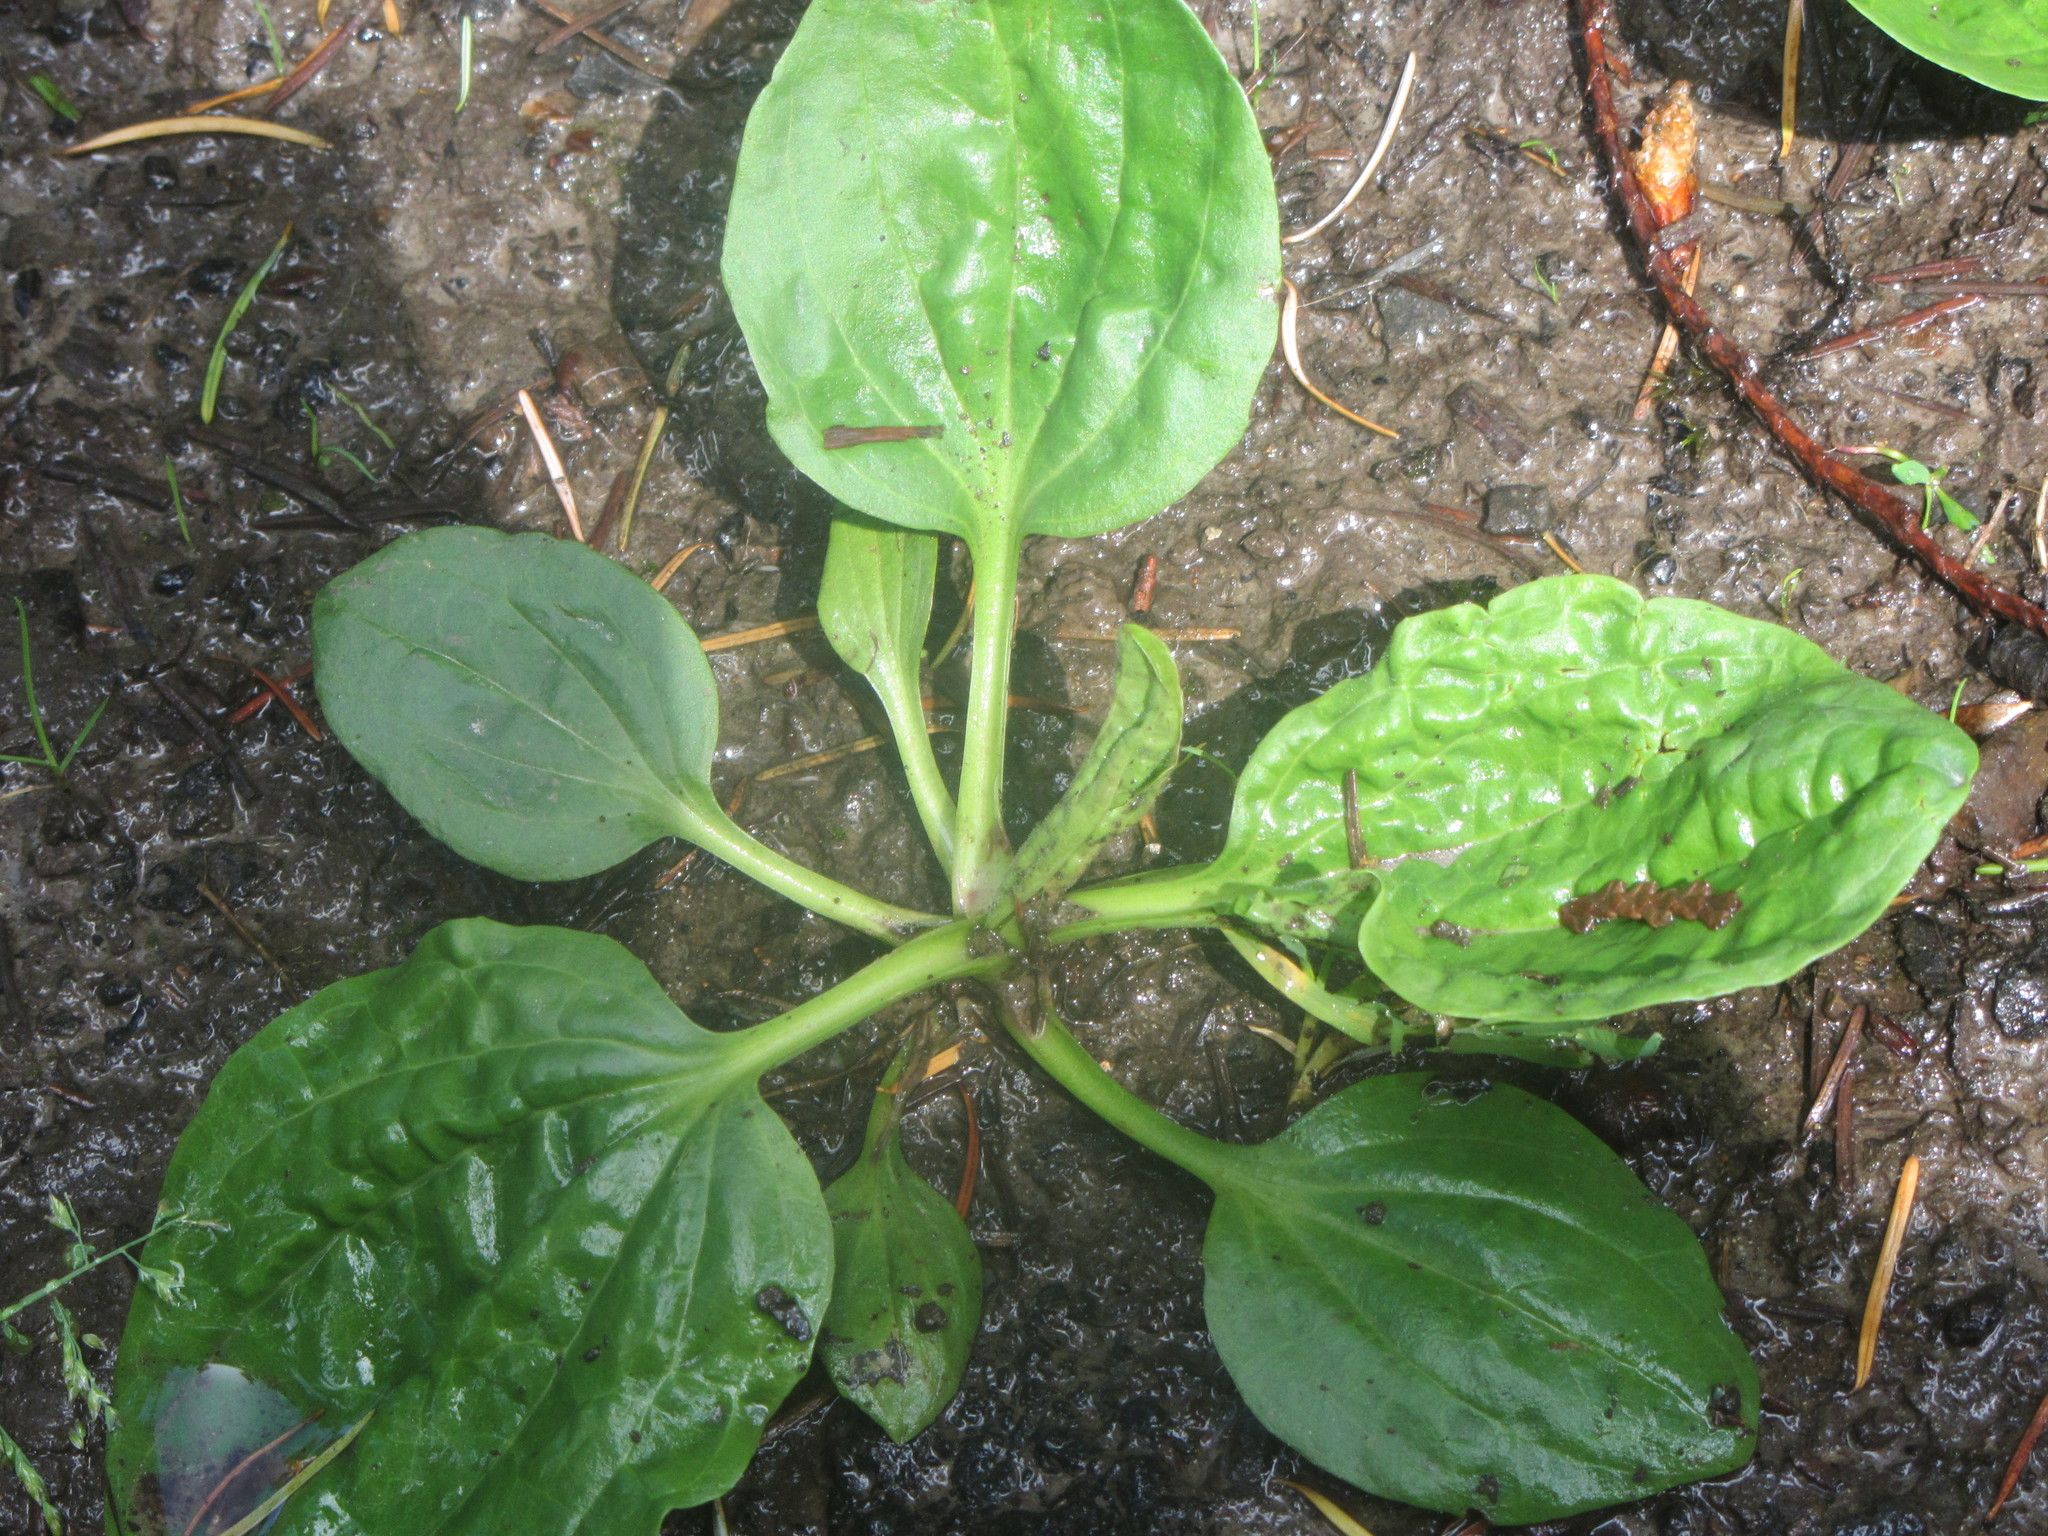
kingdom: Plantae
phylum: Tracheophyta
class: Magnoliopsida
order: Lamiales
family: Plantaginaceae
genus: Plantago
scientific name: Plantago major
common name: Common plantain
